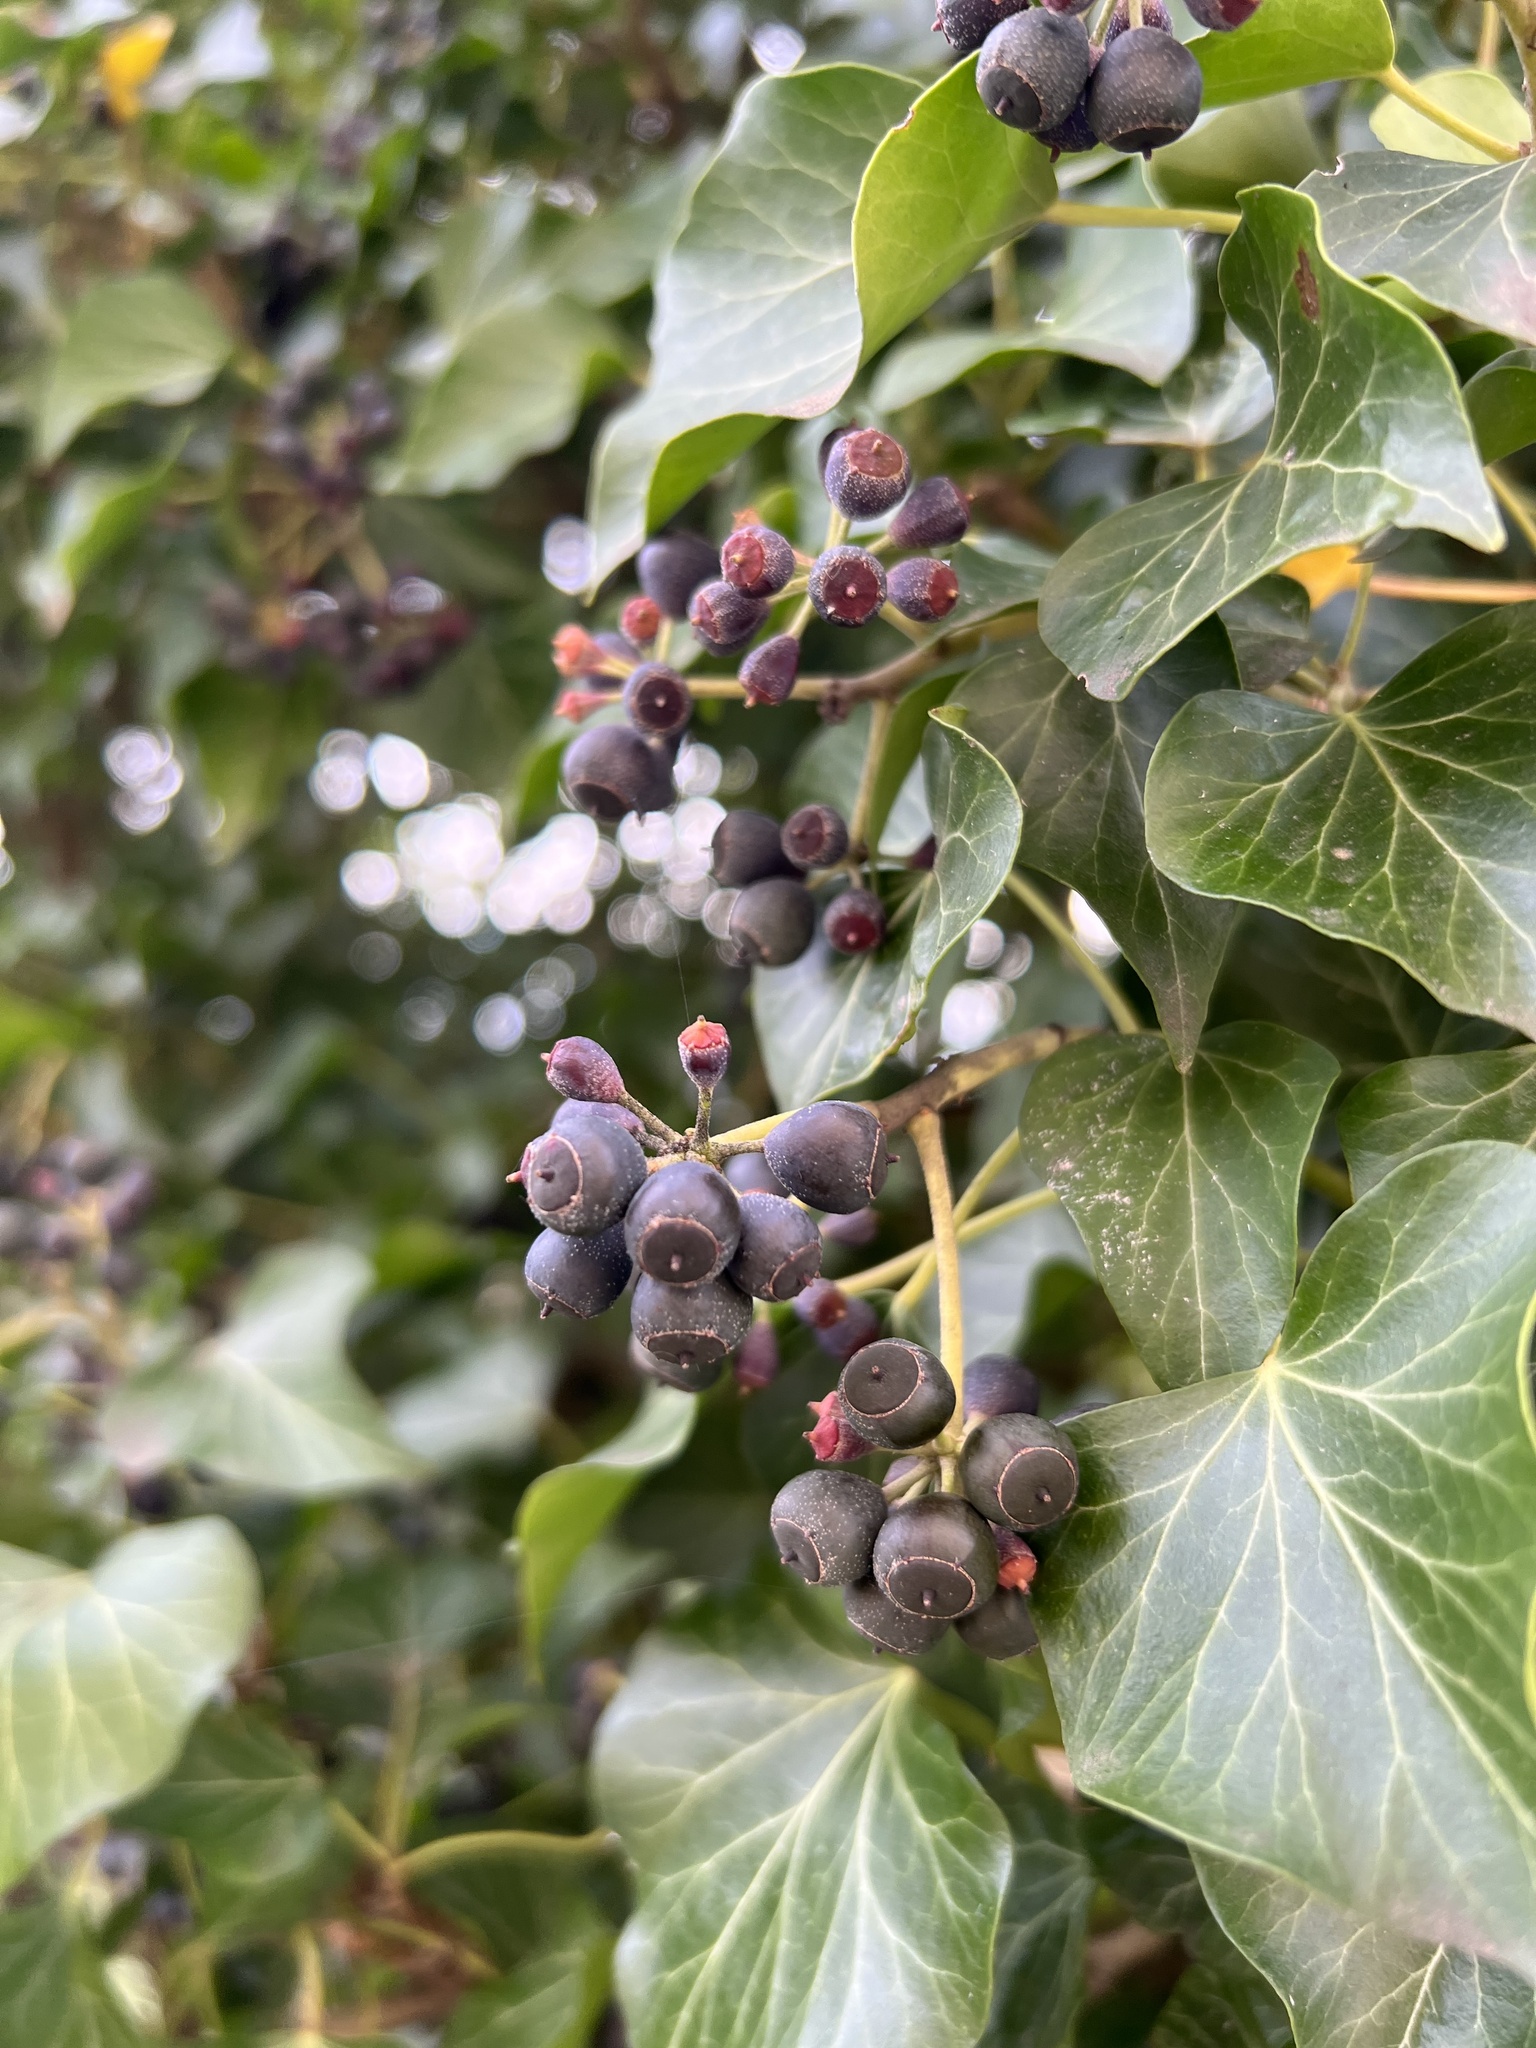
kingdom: Plantae
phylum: Tracheophyta
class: Magnoliopsida
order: Apiales
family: Araliaceae
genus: Hedera
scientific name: Hedera helix
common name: Ivy
